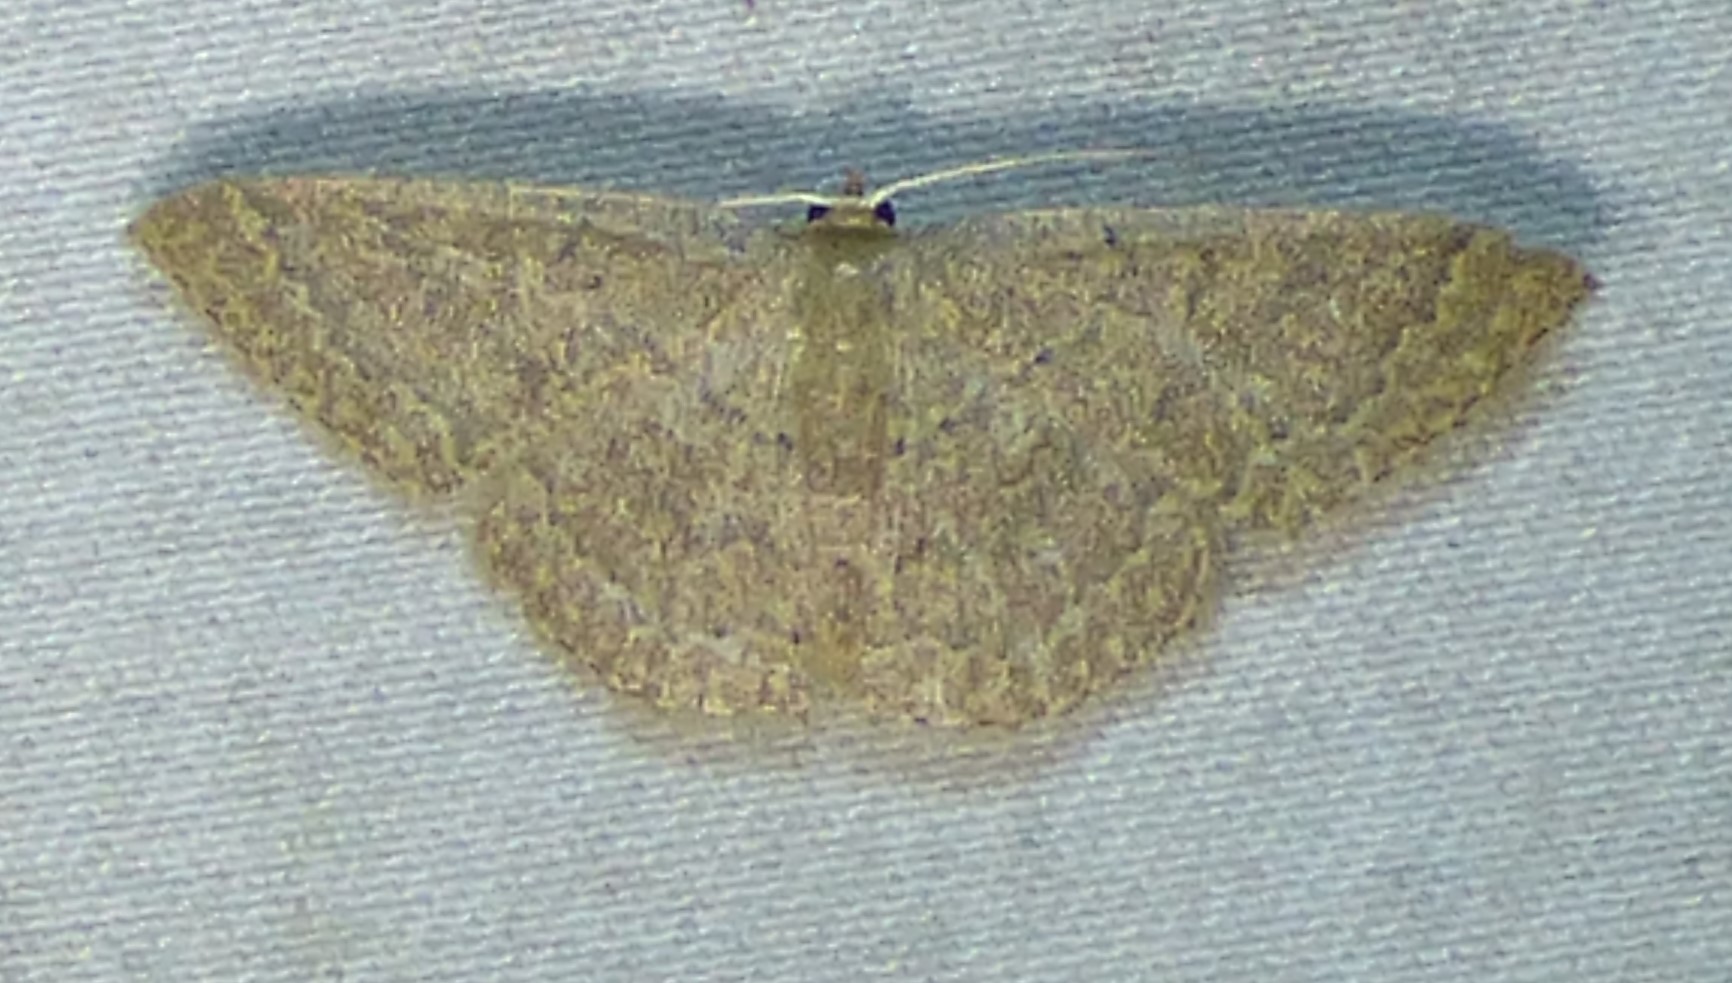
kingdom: Animalia
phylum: Arthropoda
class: Insecta
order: Lepidoptera
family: Geometridae
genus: Pleuroprucha
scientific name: Pleuroprucha insulsaria
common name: Common tan wave
